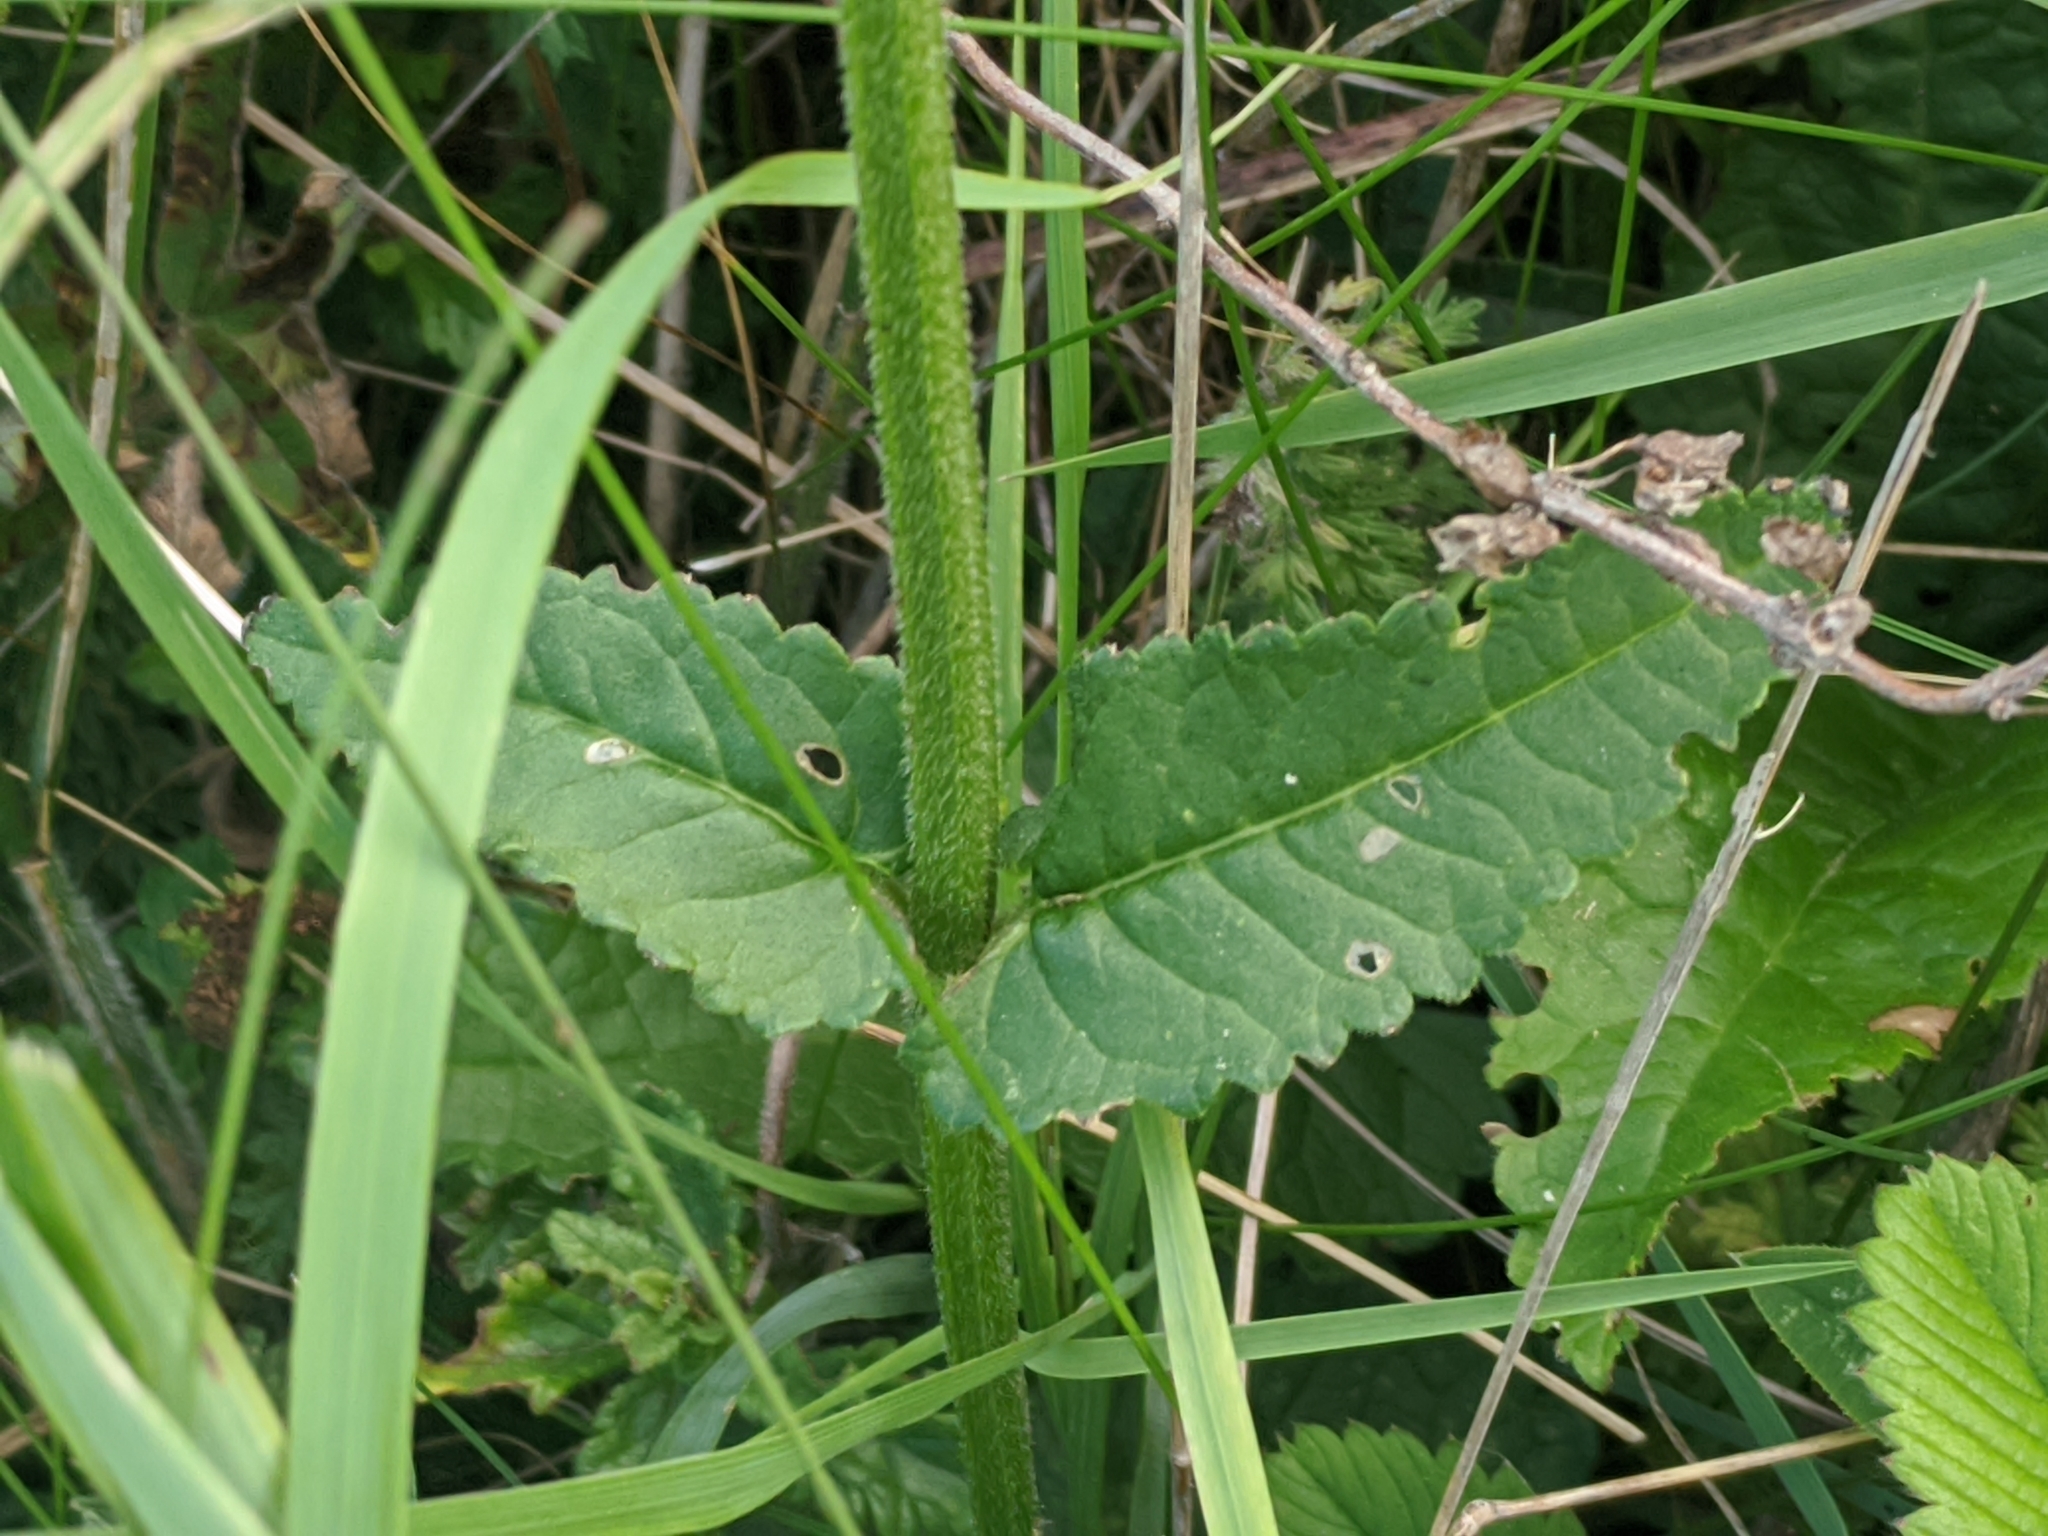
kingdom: Plantae
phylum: Tracheophyta
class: Magnoliopsida
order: Lamiales
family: Lamiaceae
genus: Betonica
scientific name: Betonica officinalis
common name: Bishop's-wort
